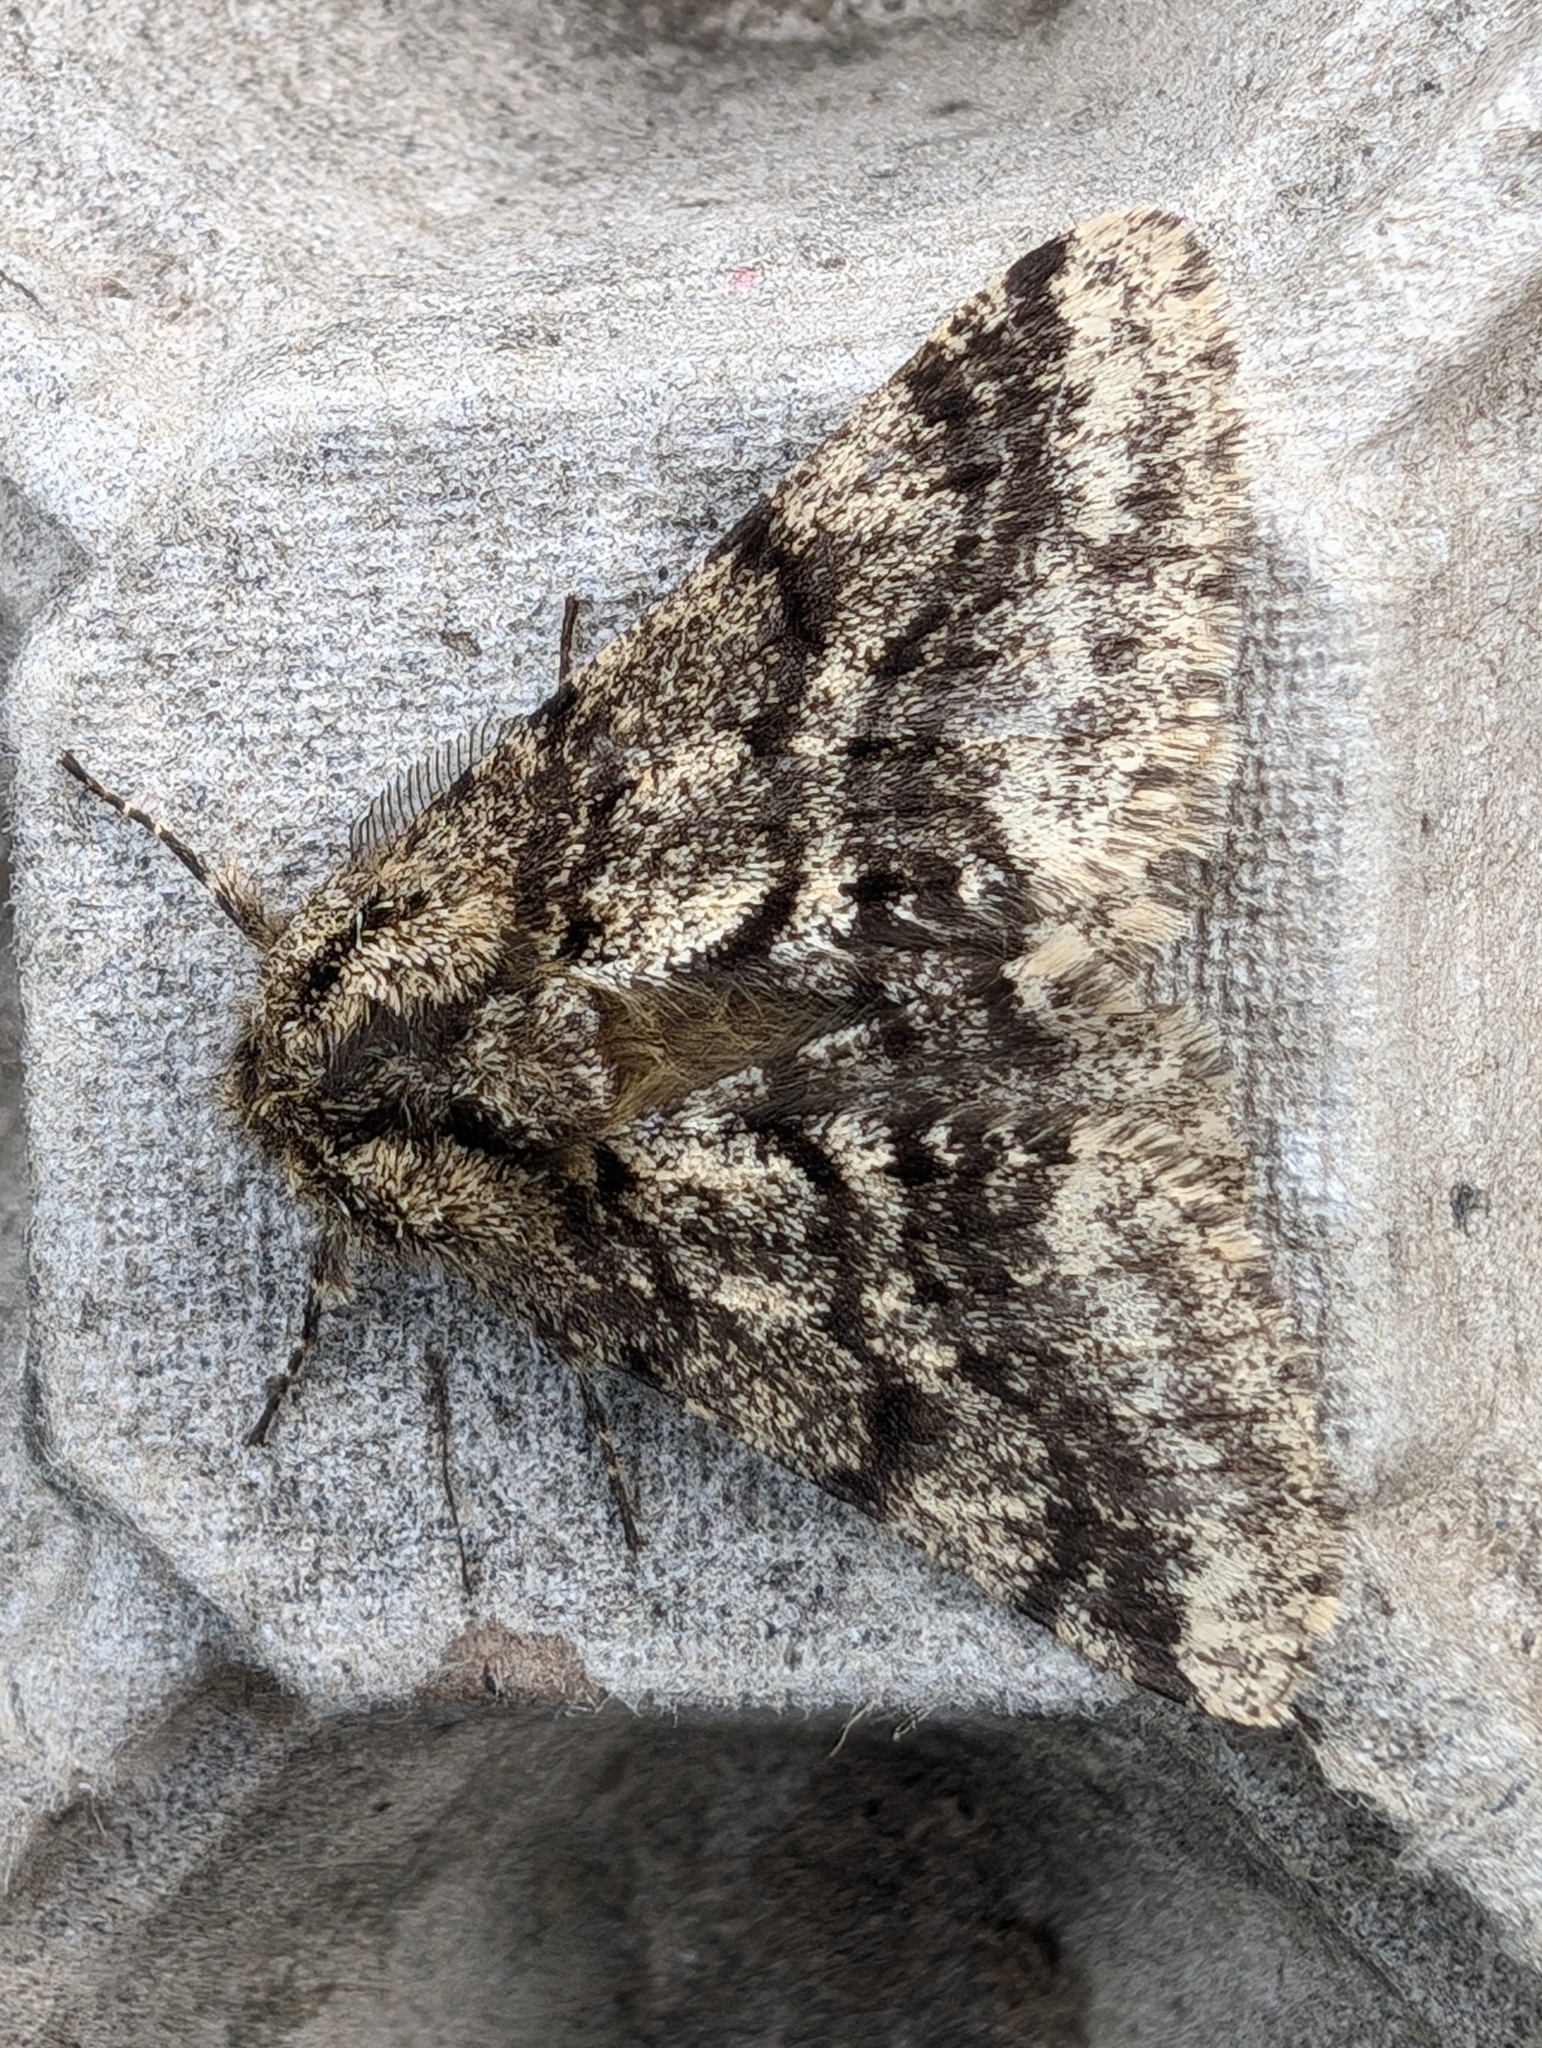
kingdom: Animalia
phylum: Arthropoda
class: Insecta
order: Lepidoptera
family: Geometridae
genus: Lycia
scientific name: Lycia hirtaria
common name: Brindled beauty
